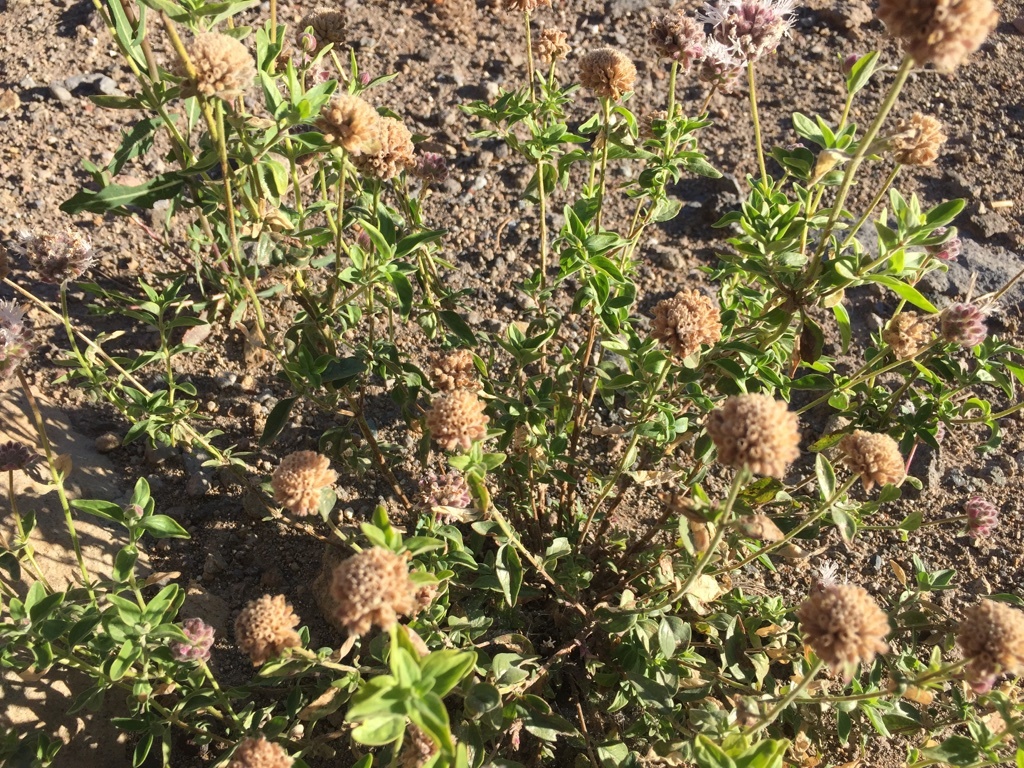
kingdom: Plantae
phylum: Tracheophyta
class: Magnoliopsida
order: Lamiales
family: Lamiaceae
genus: Monardella
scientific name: Monardella odoratissima
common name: Pacific monardella
